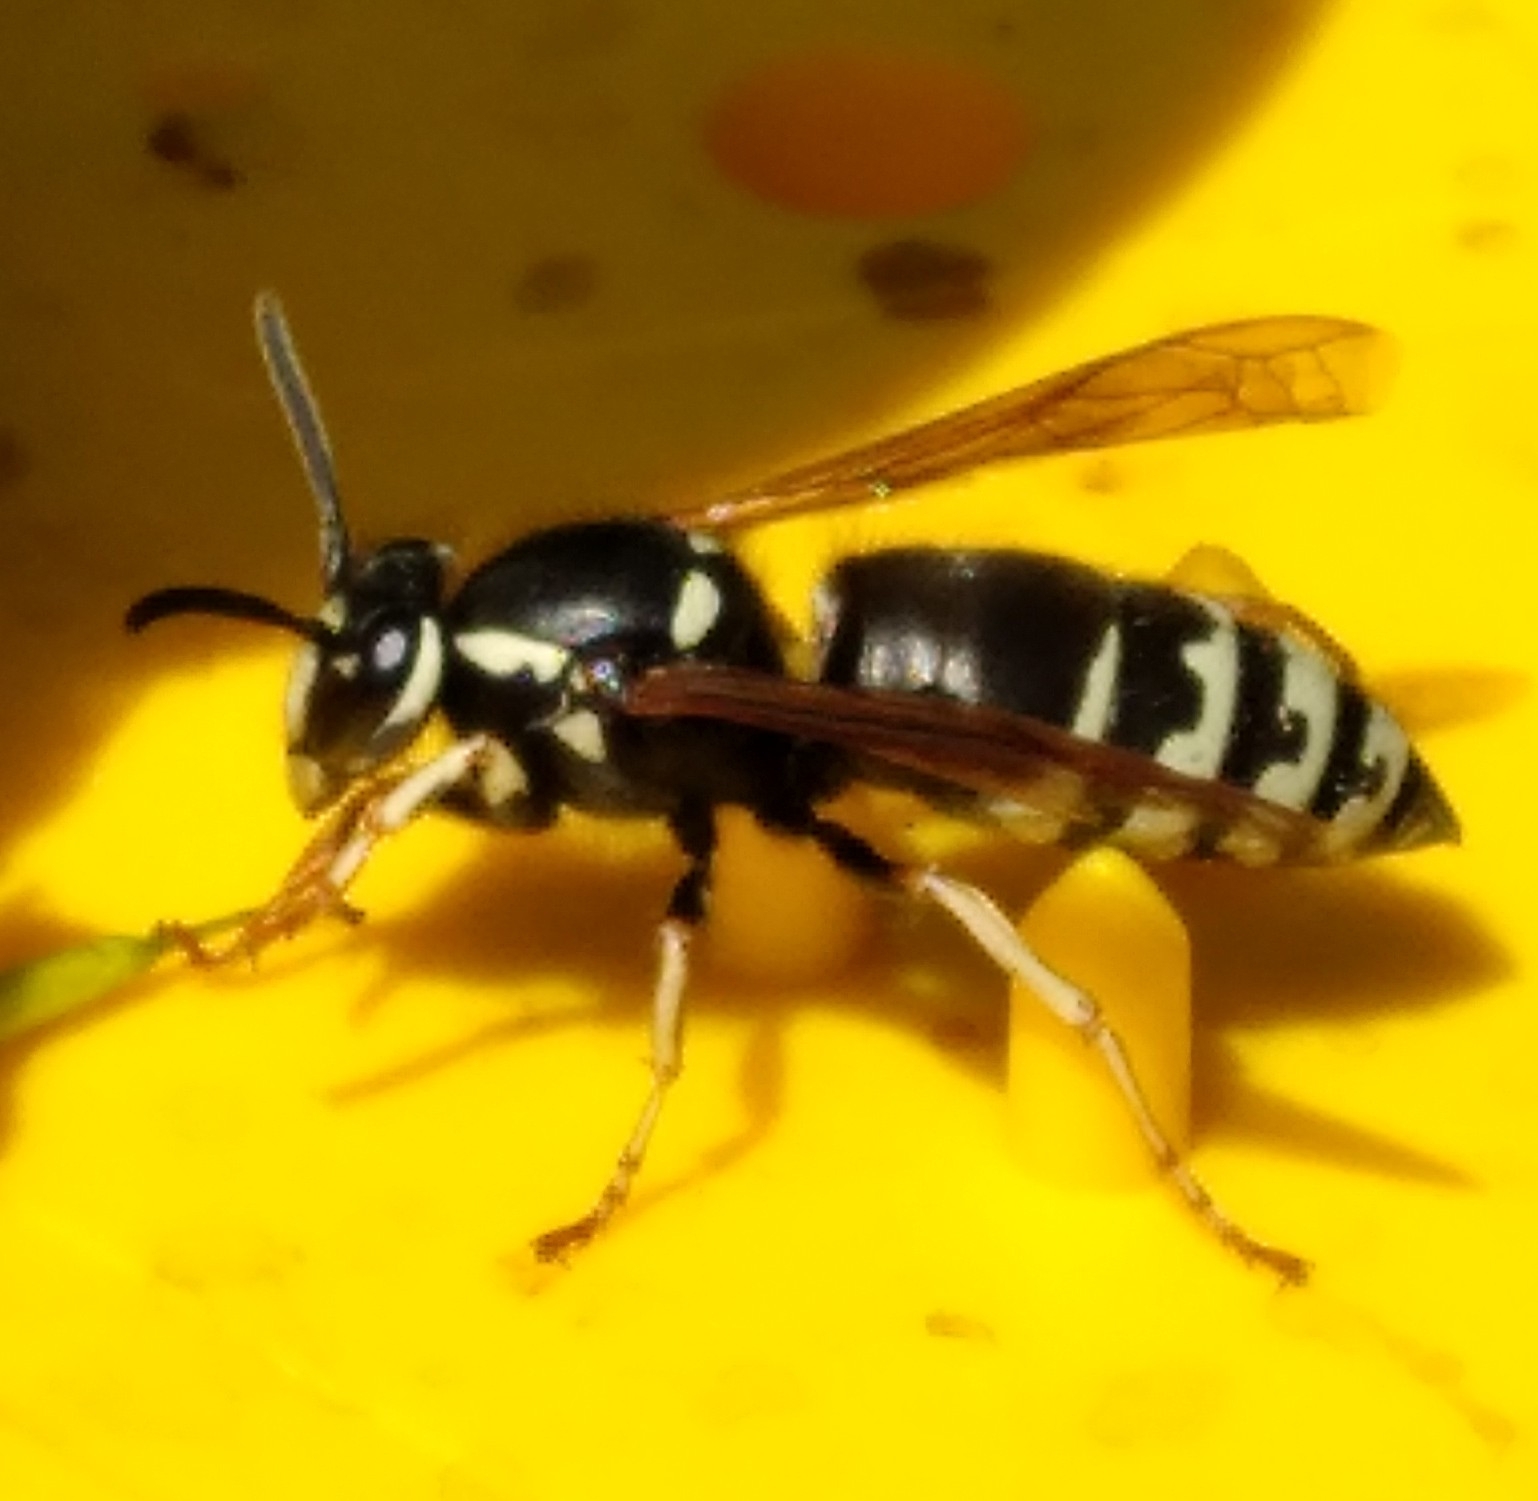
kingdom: Animalia
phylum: Arthropoda
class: Insecta
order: Hymenoptera
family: Vespidae
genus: Vespula
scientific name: Vespula consobrina
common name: Blackjacket
